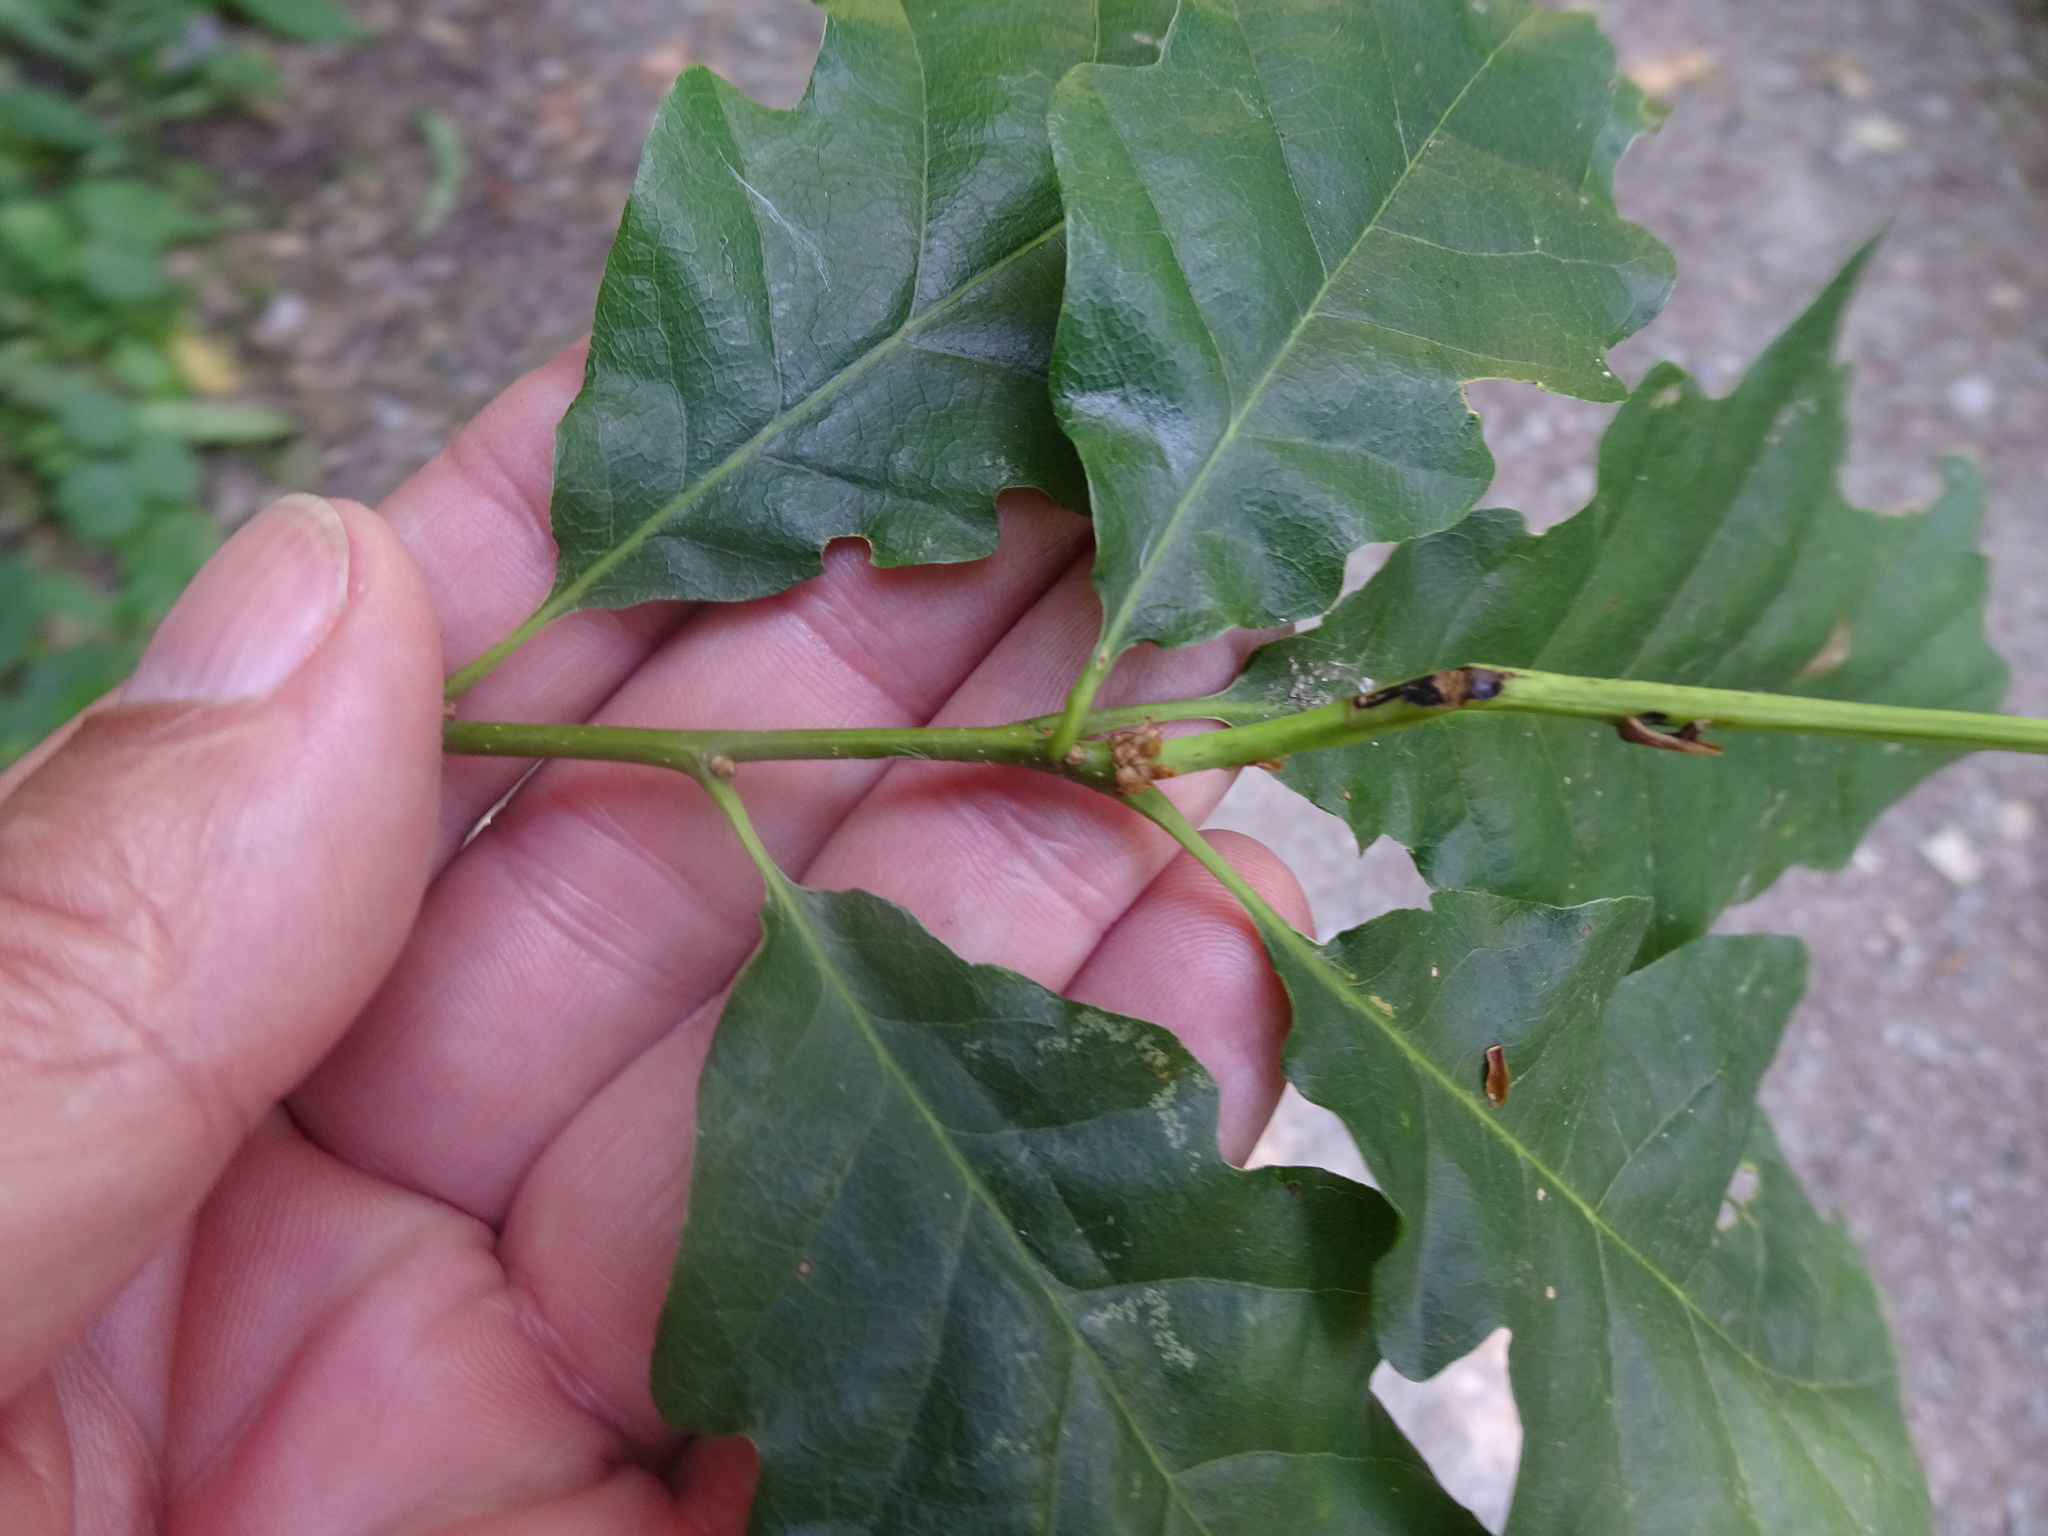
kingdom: Plantae
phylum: Tracheophyta
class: Magnoliopsida
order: Fagales
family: Fagaceae
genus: Quercus
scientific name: Quercus petraea
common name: Sessile oak
